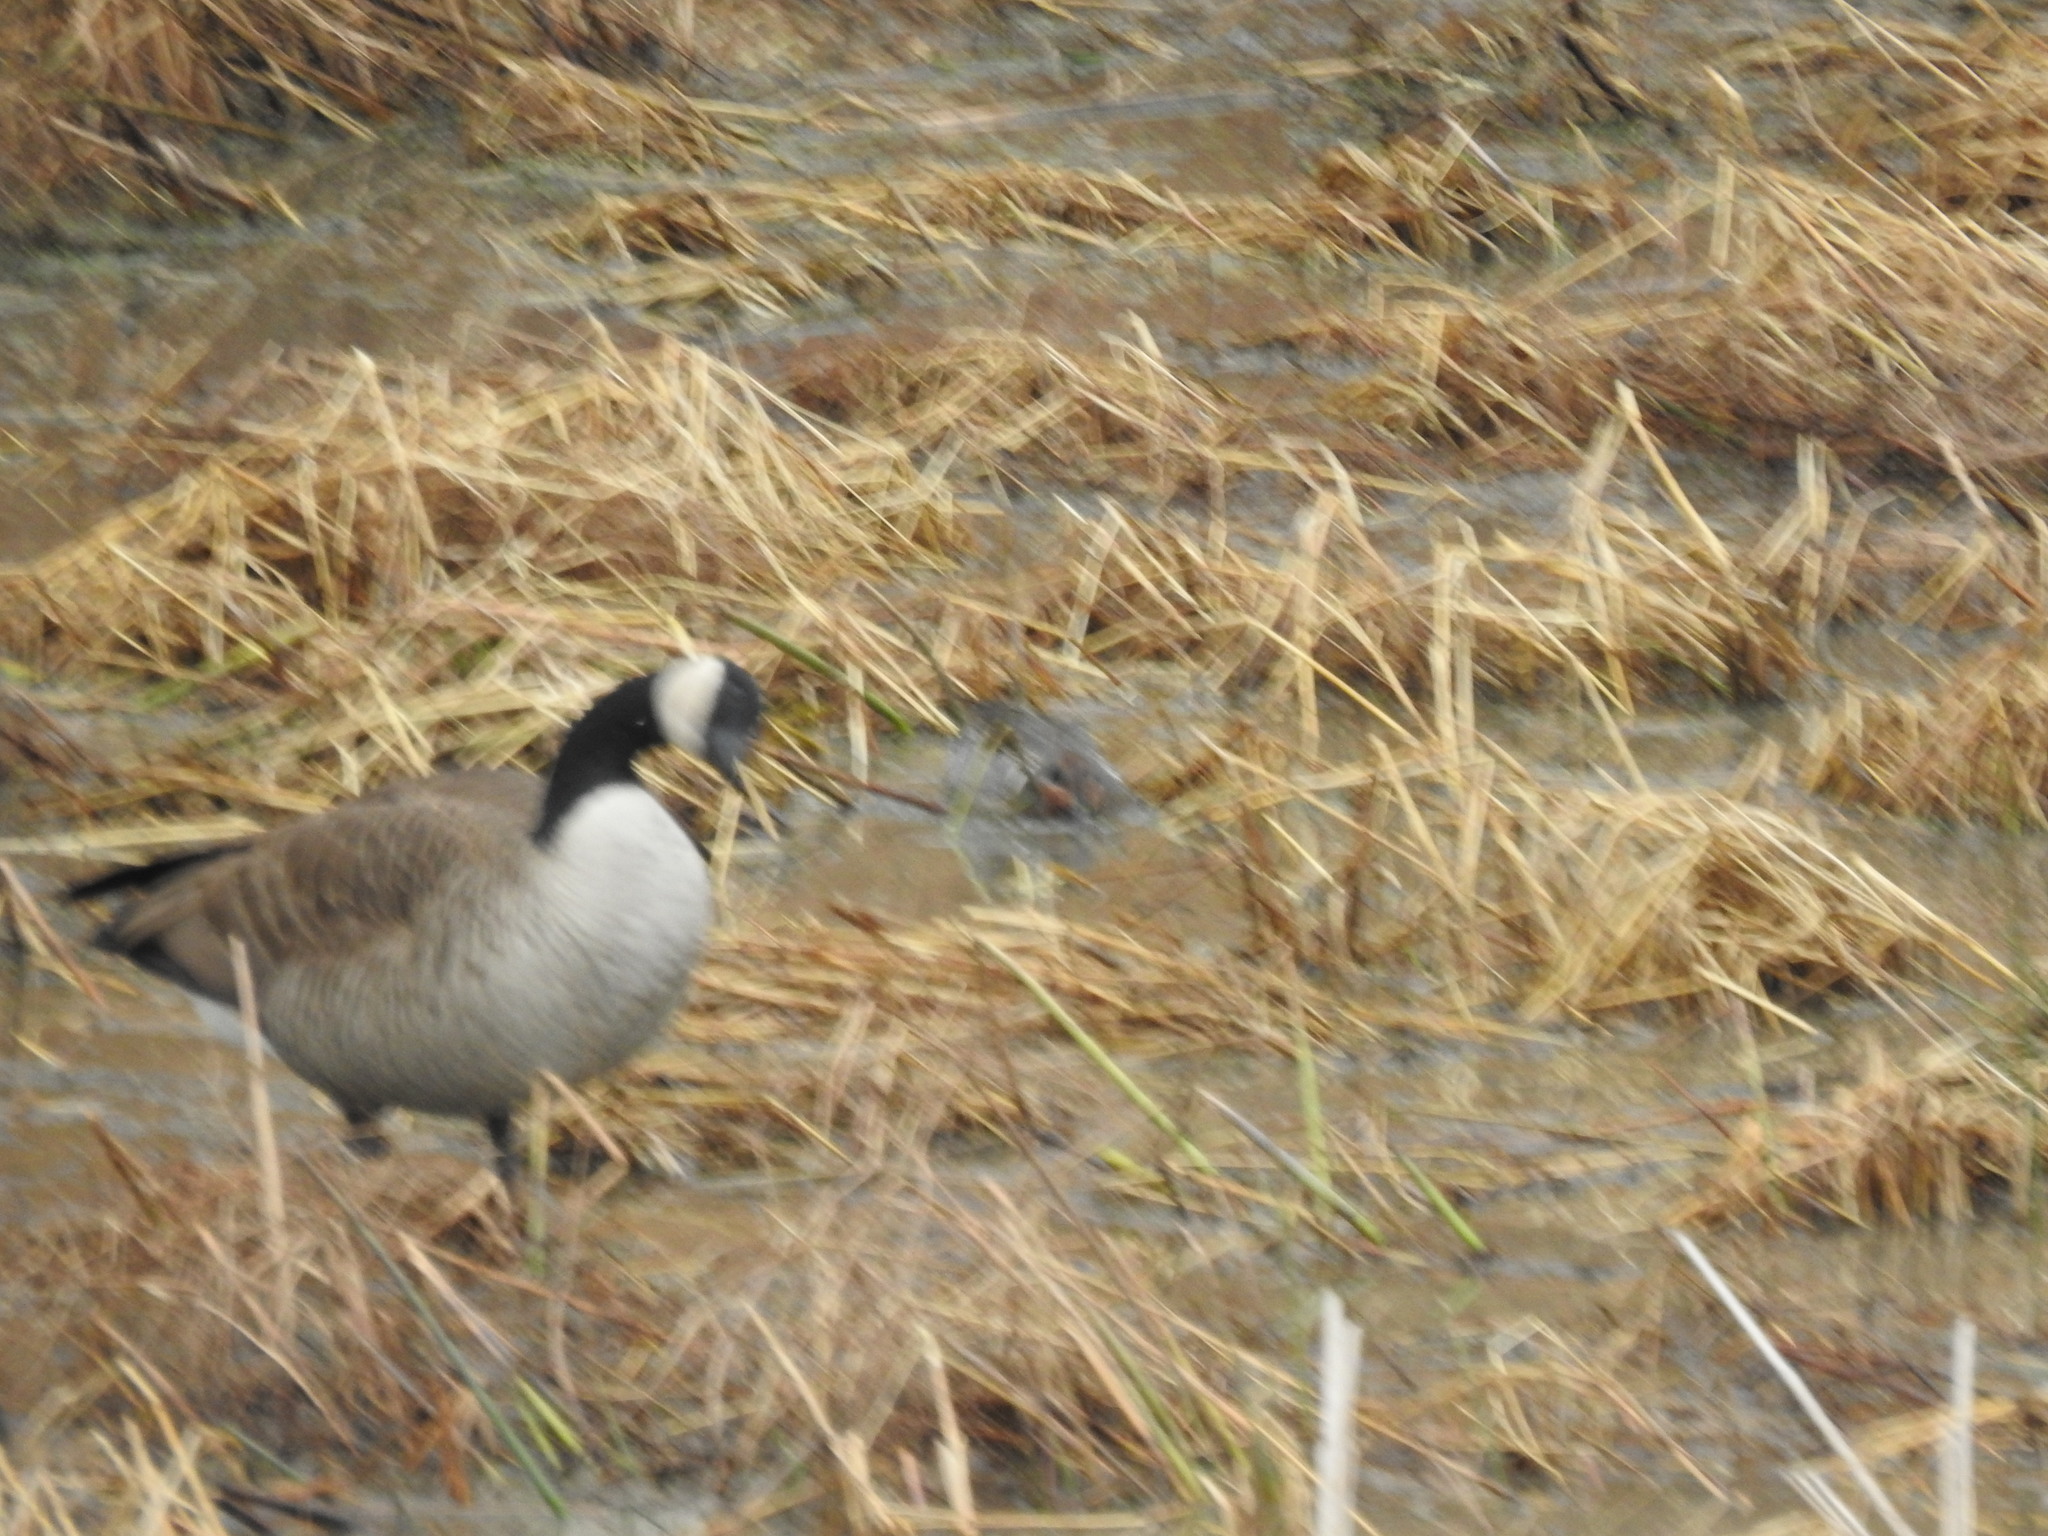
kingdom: Animalia
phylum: Chordata
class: Aves
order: Anseriformes
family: Anatidae
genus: Branta
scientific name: Branta canadensis
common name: Canada goose
